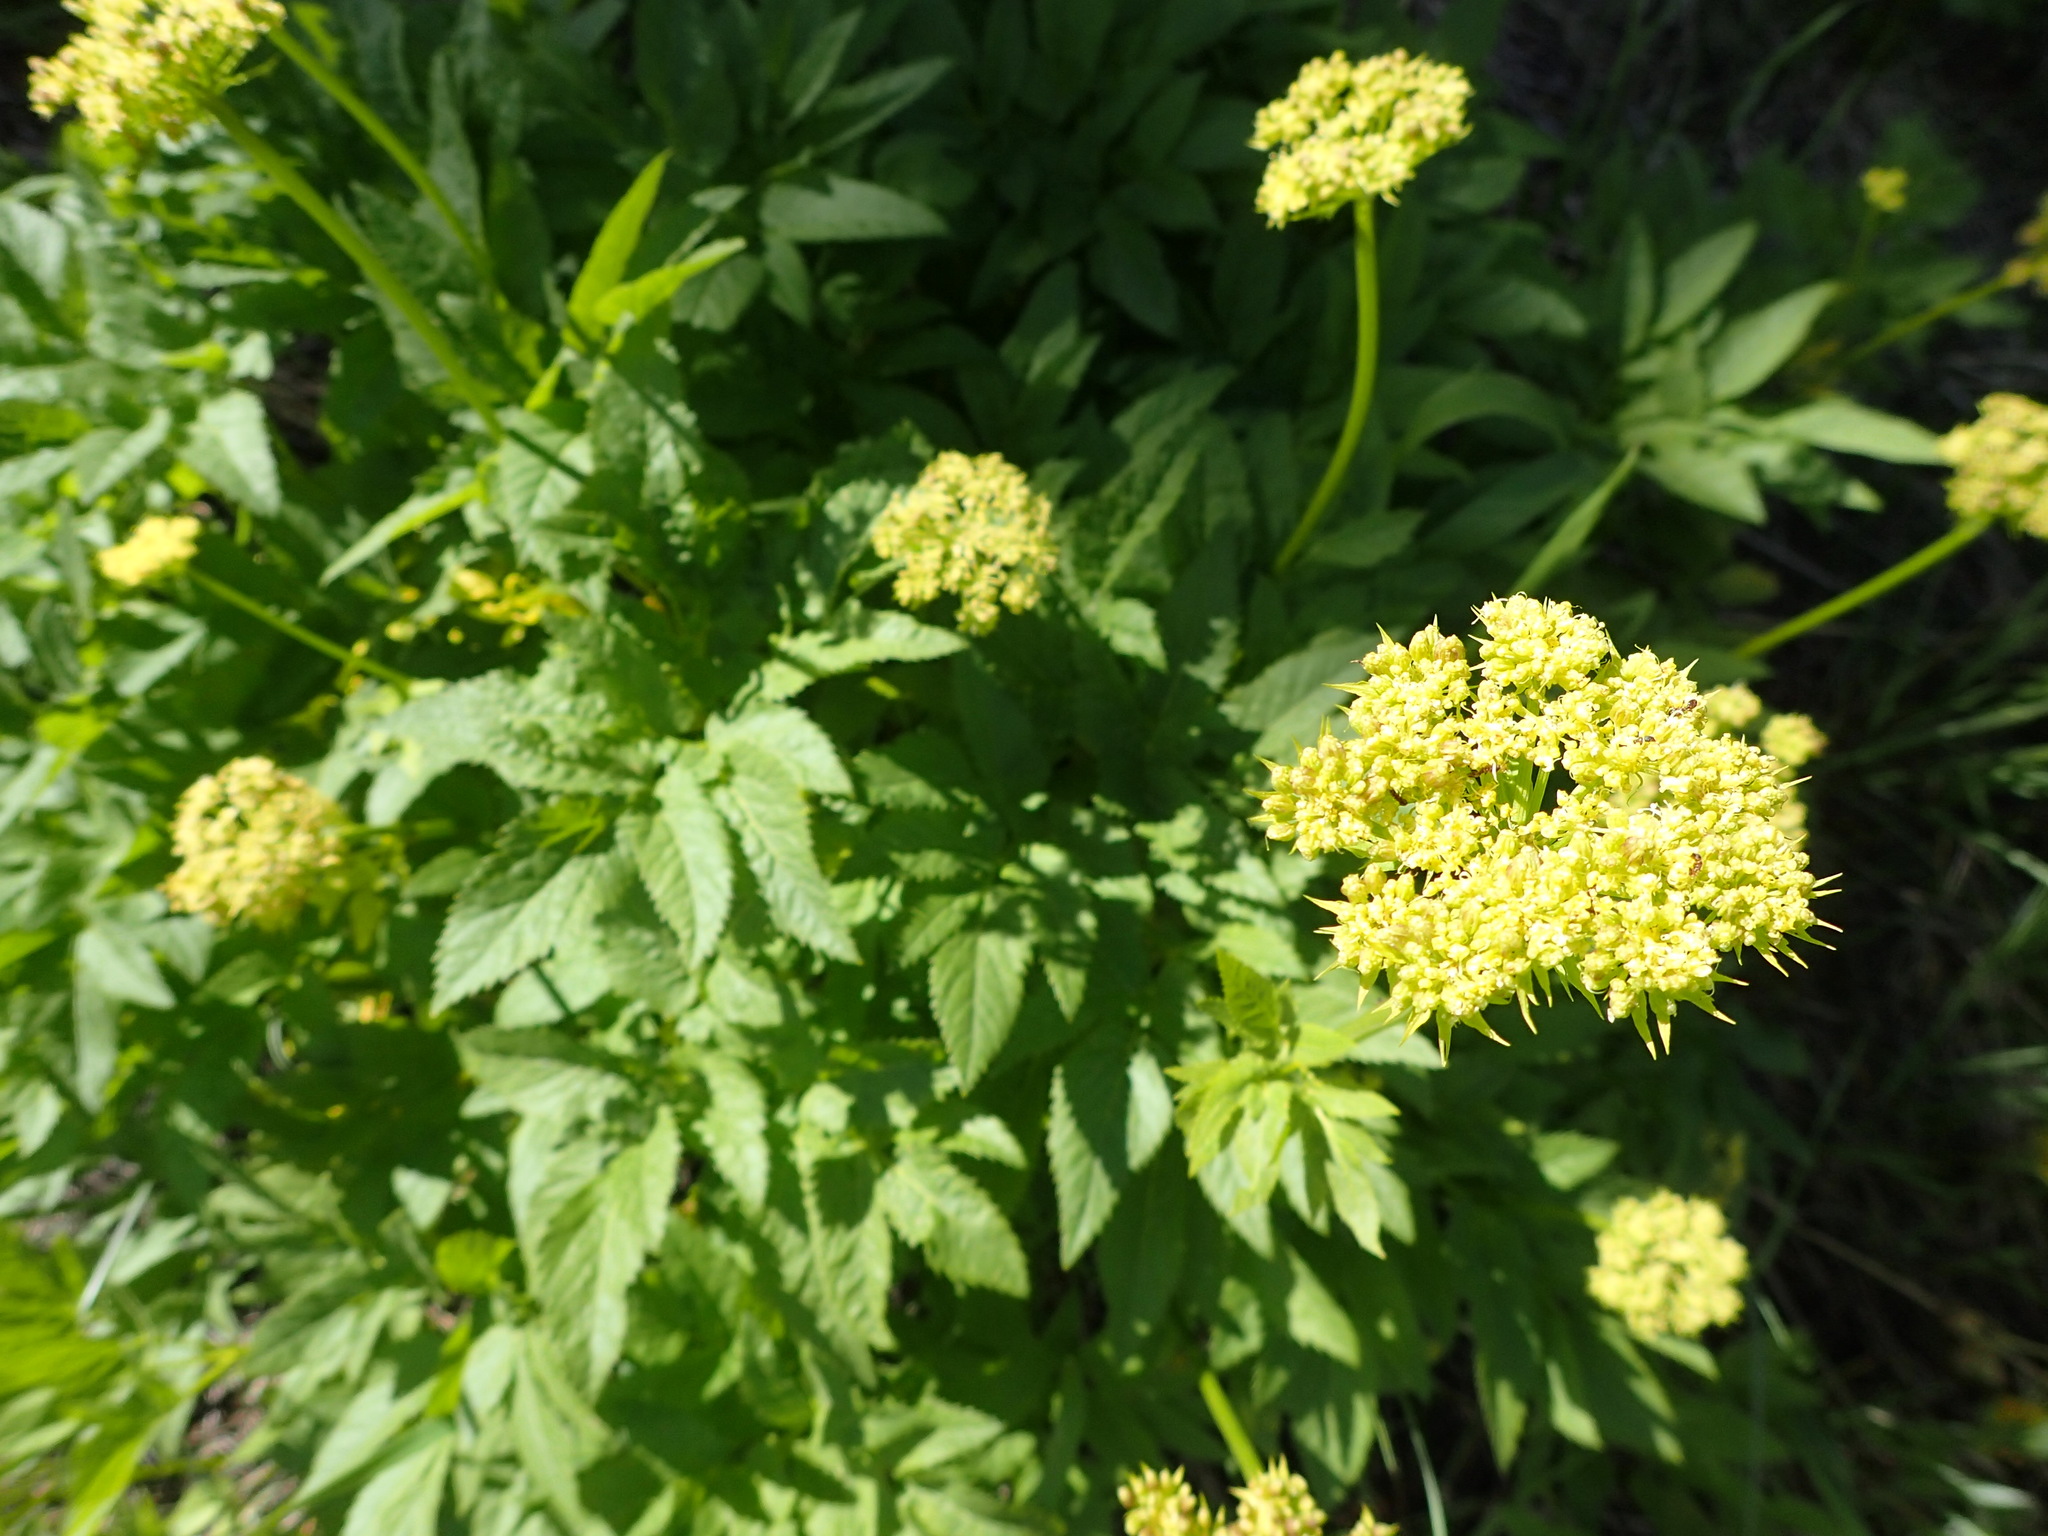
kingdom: Plantae
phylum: Tracheophyta
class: Magnoliopsida
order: Apiales
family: Apiaceae
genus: Angelica
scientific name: Angelica dawsonii
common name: Dawson's angelica
